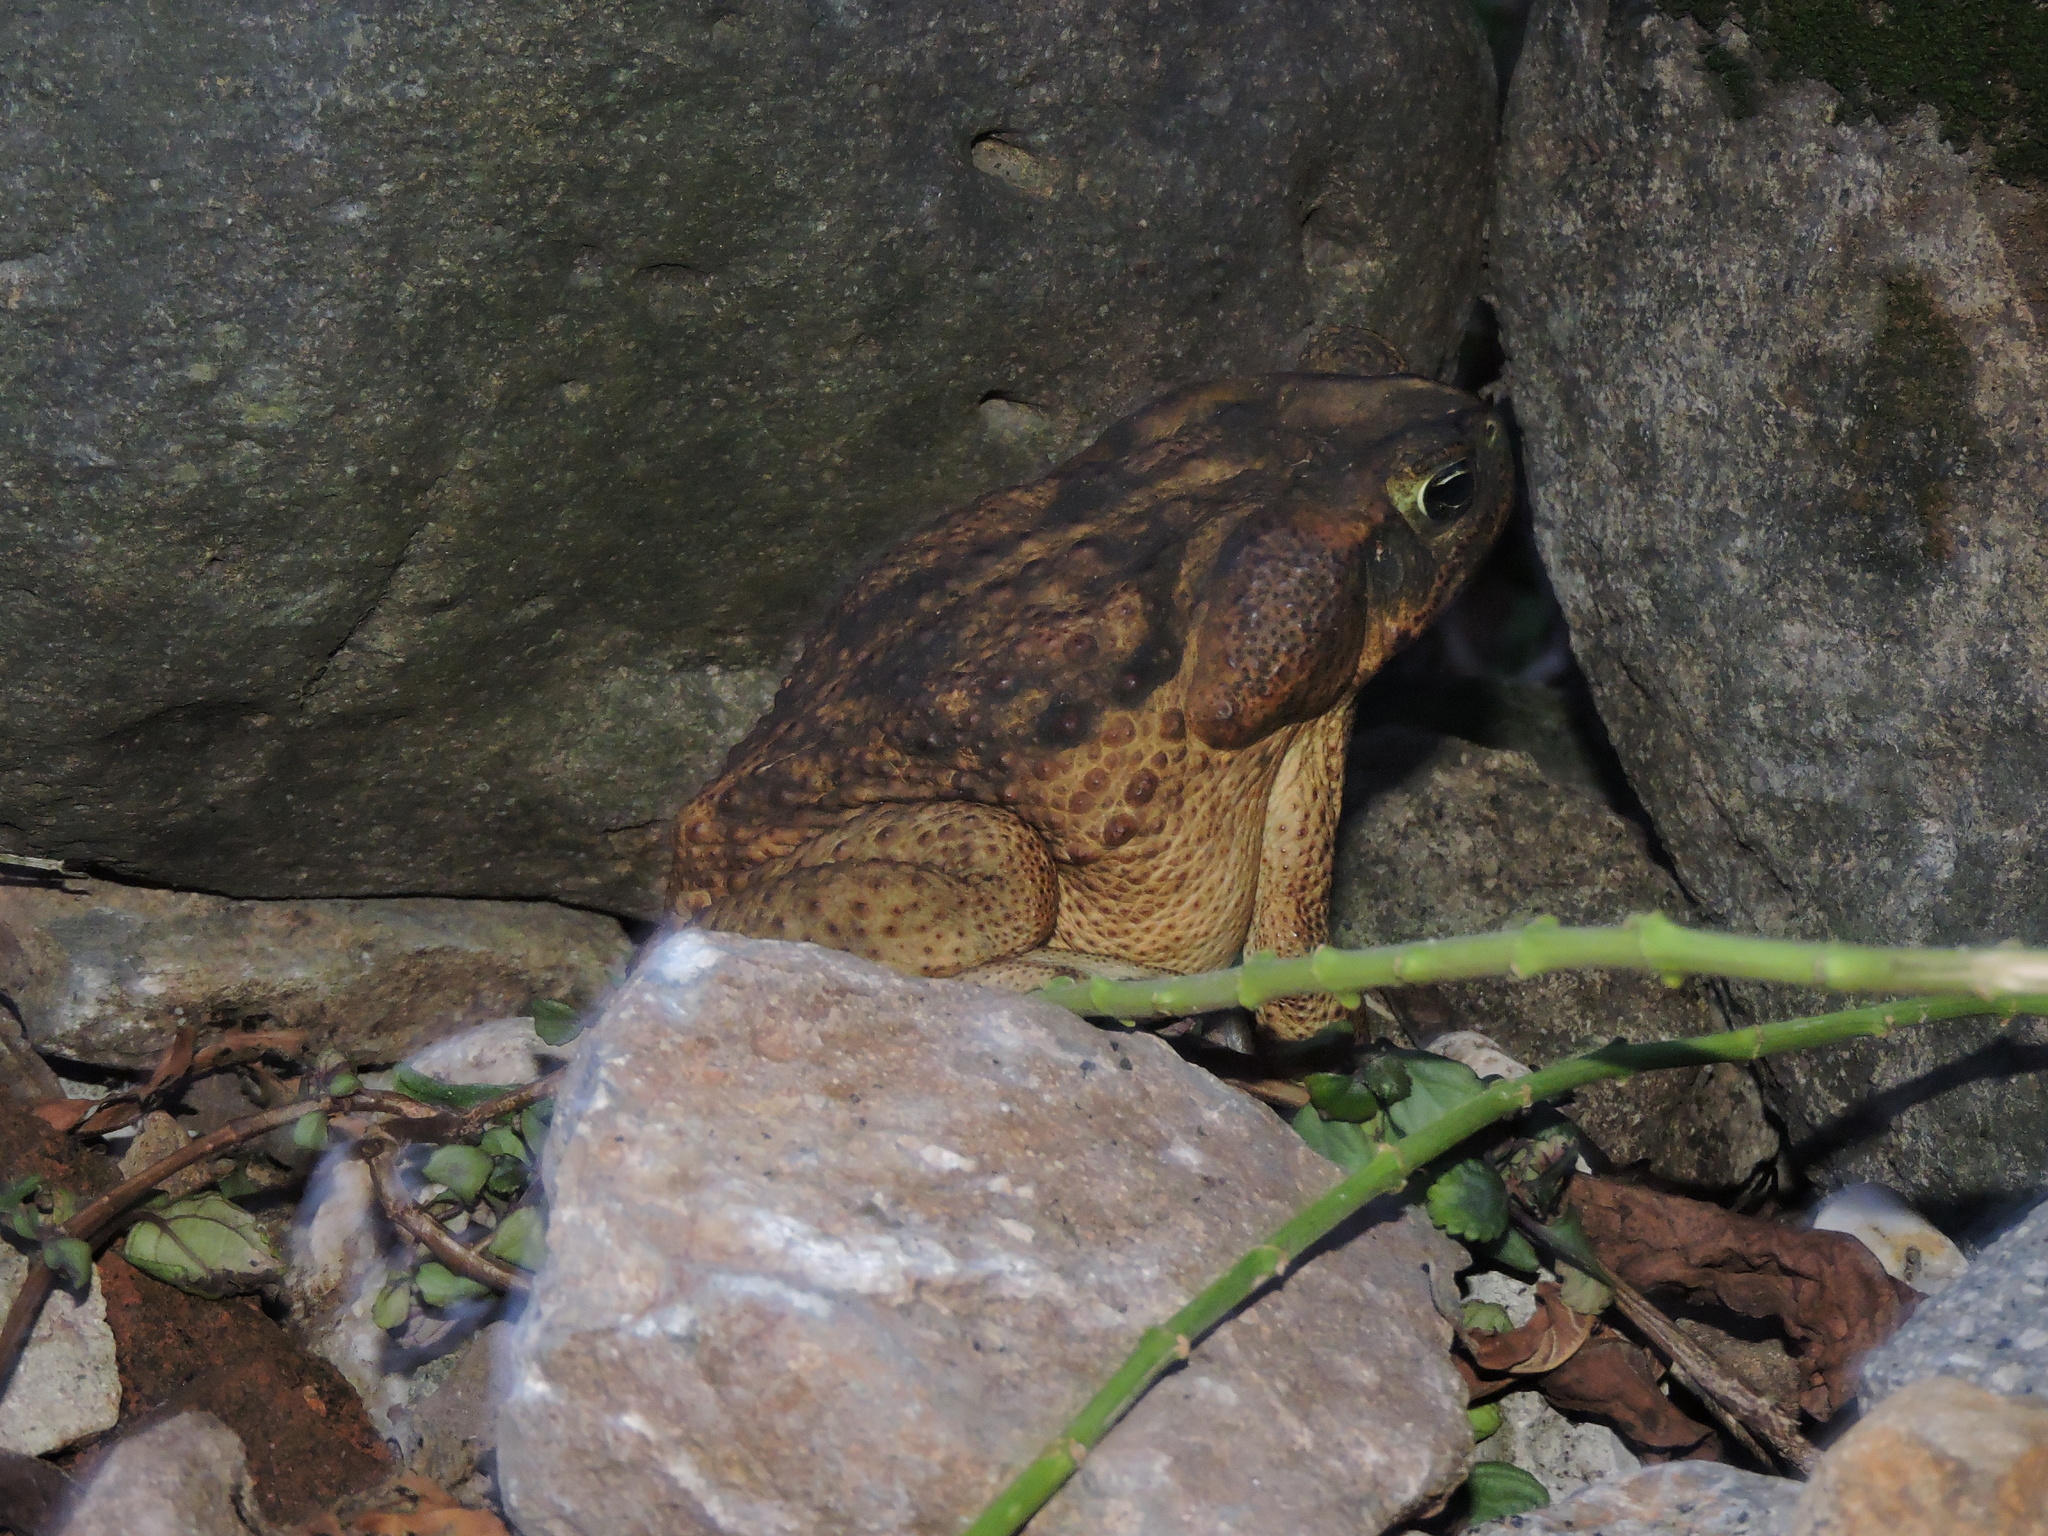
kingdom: Animalia
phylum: Chordata
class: Amphibia
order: Anura
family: Bufonidae
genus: Rhinella
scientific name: Rhinella horribilis
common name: Mesoamerican cane toad
